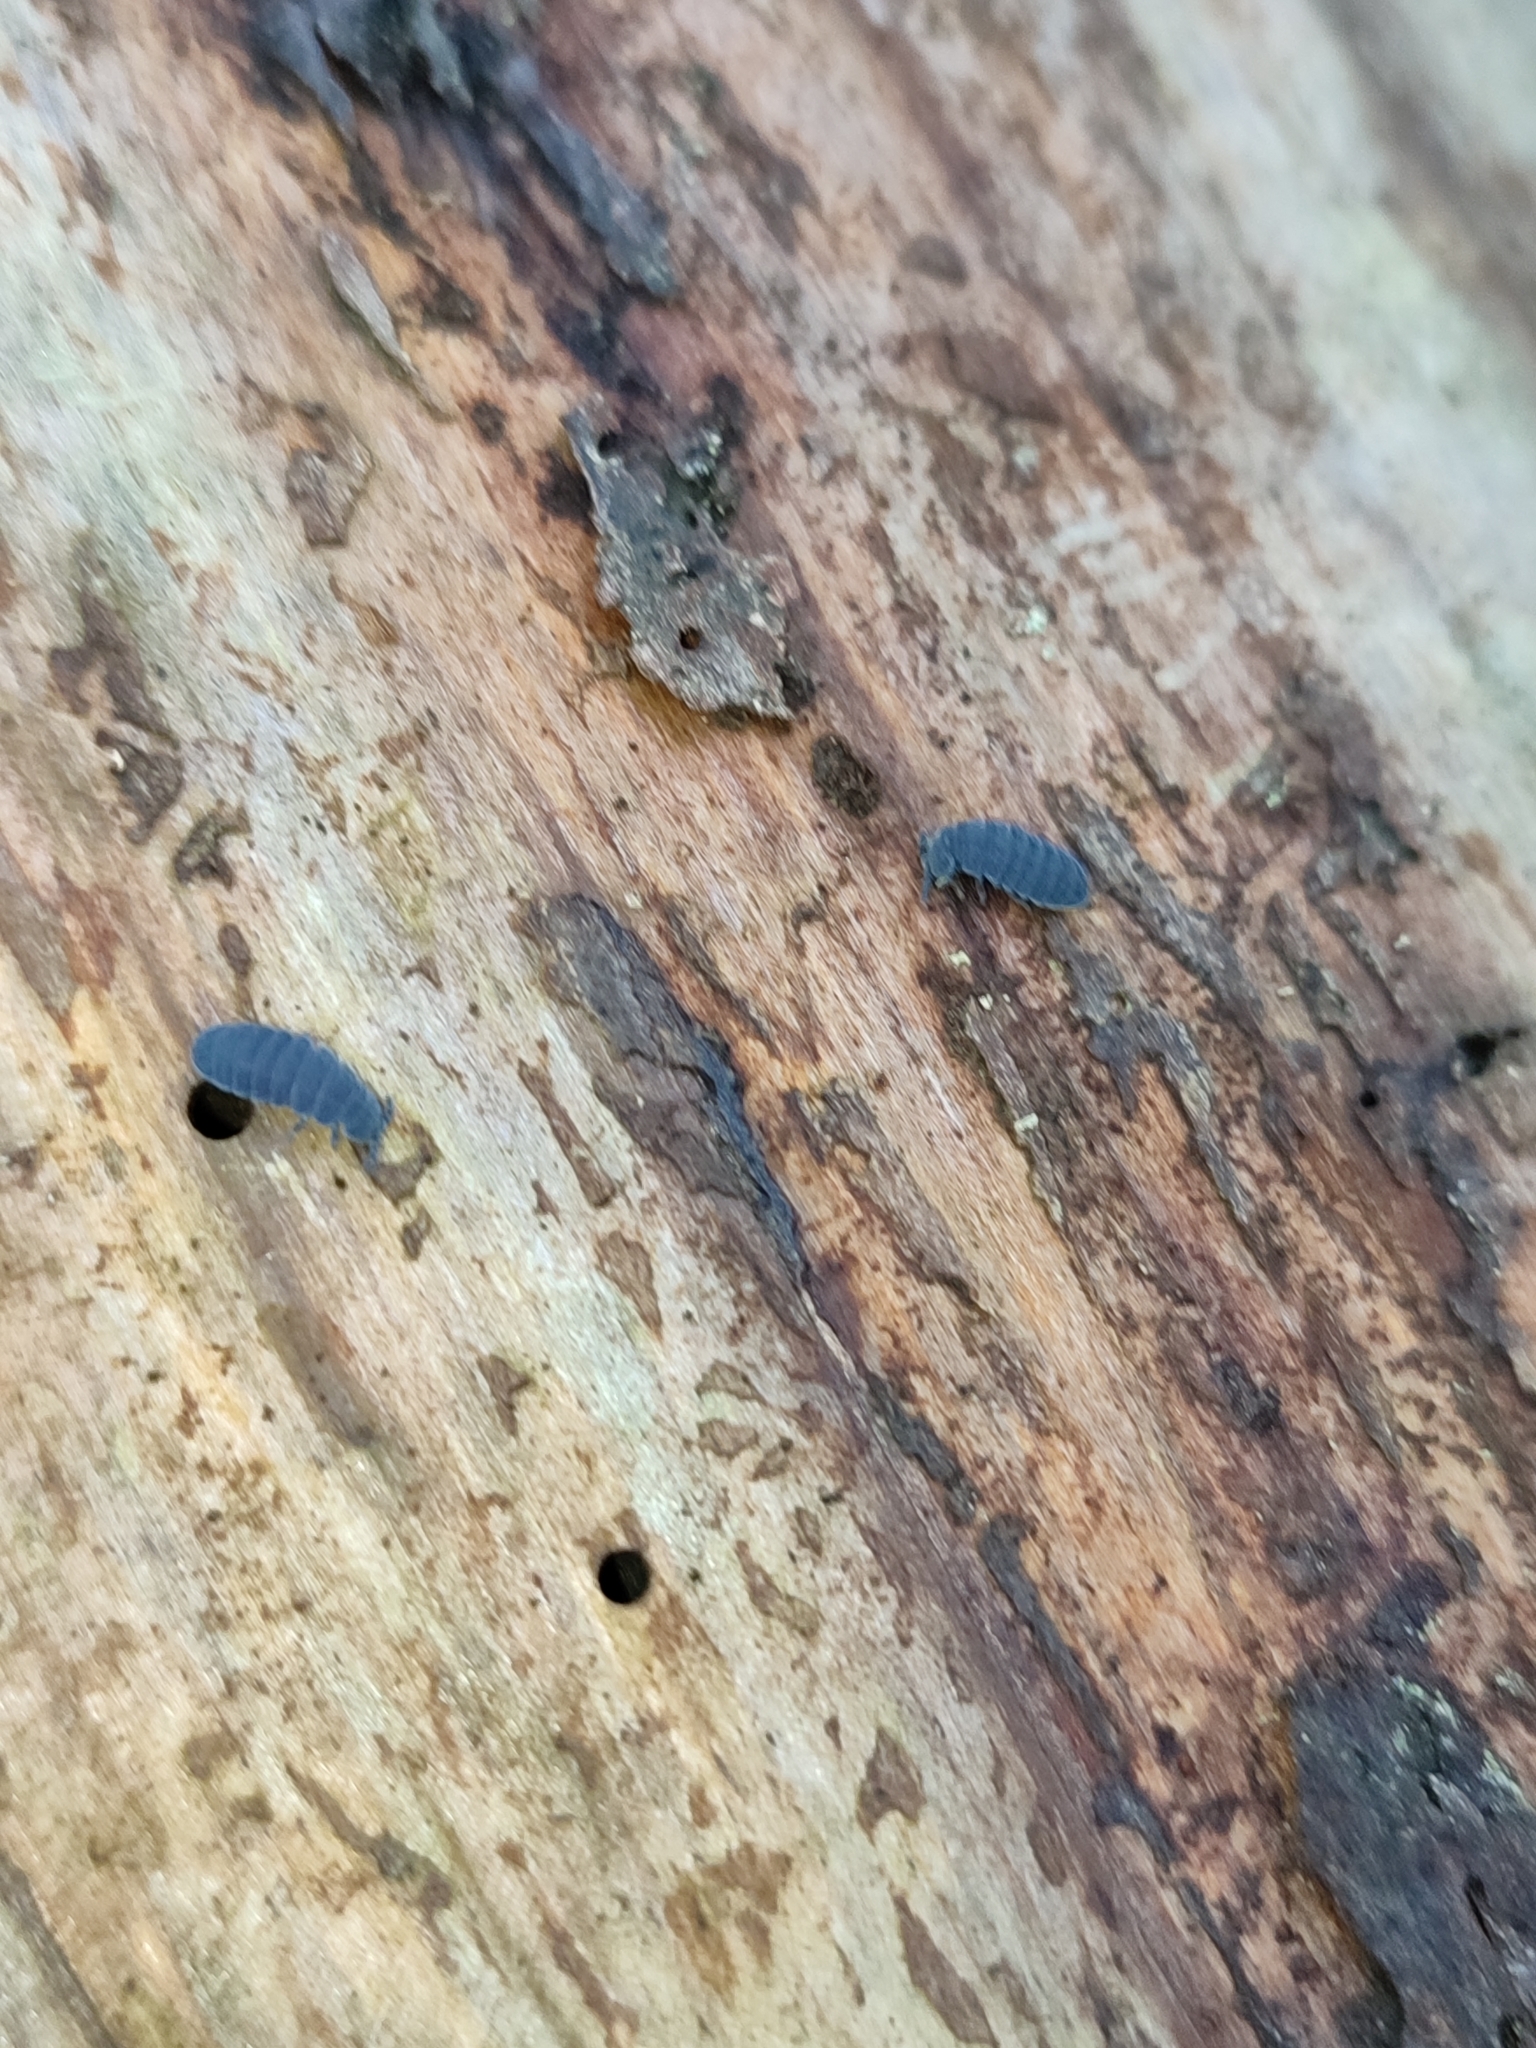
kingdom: Animalia
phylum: Arthropoda
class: Collembola
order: Poduromorpha
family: Onychiuridae
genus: Tetrodontophora
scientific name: Tetrodontophora bielanensis
